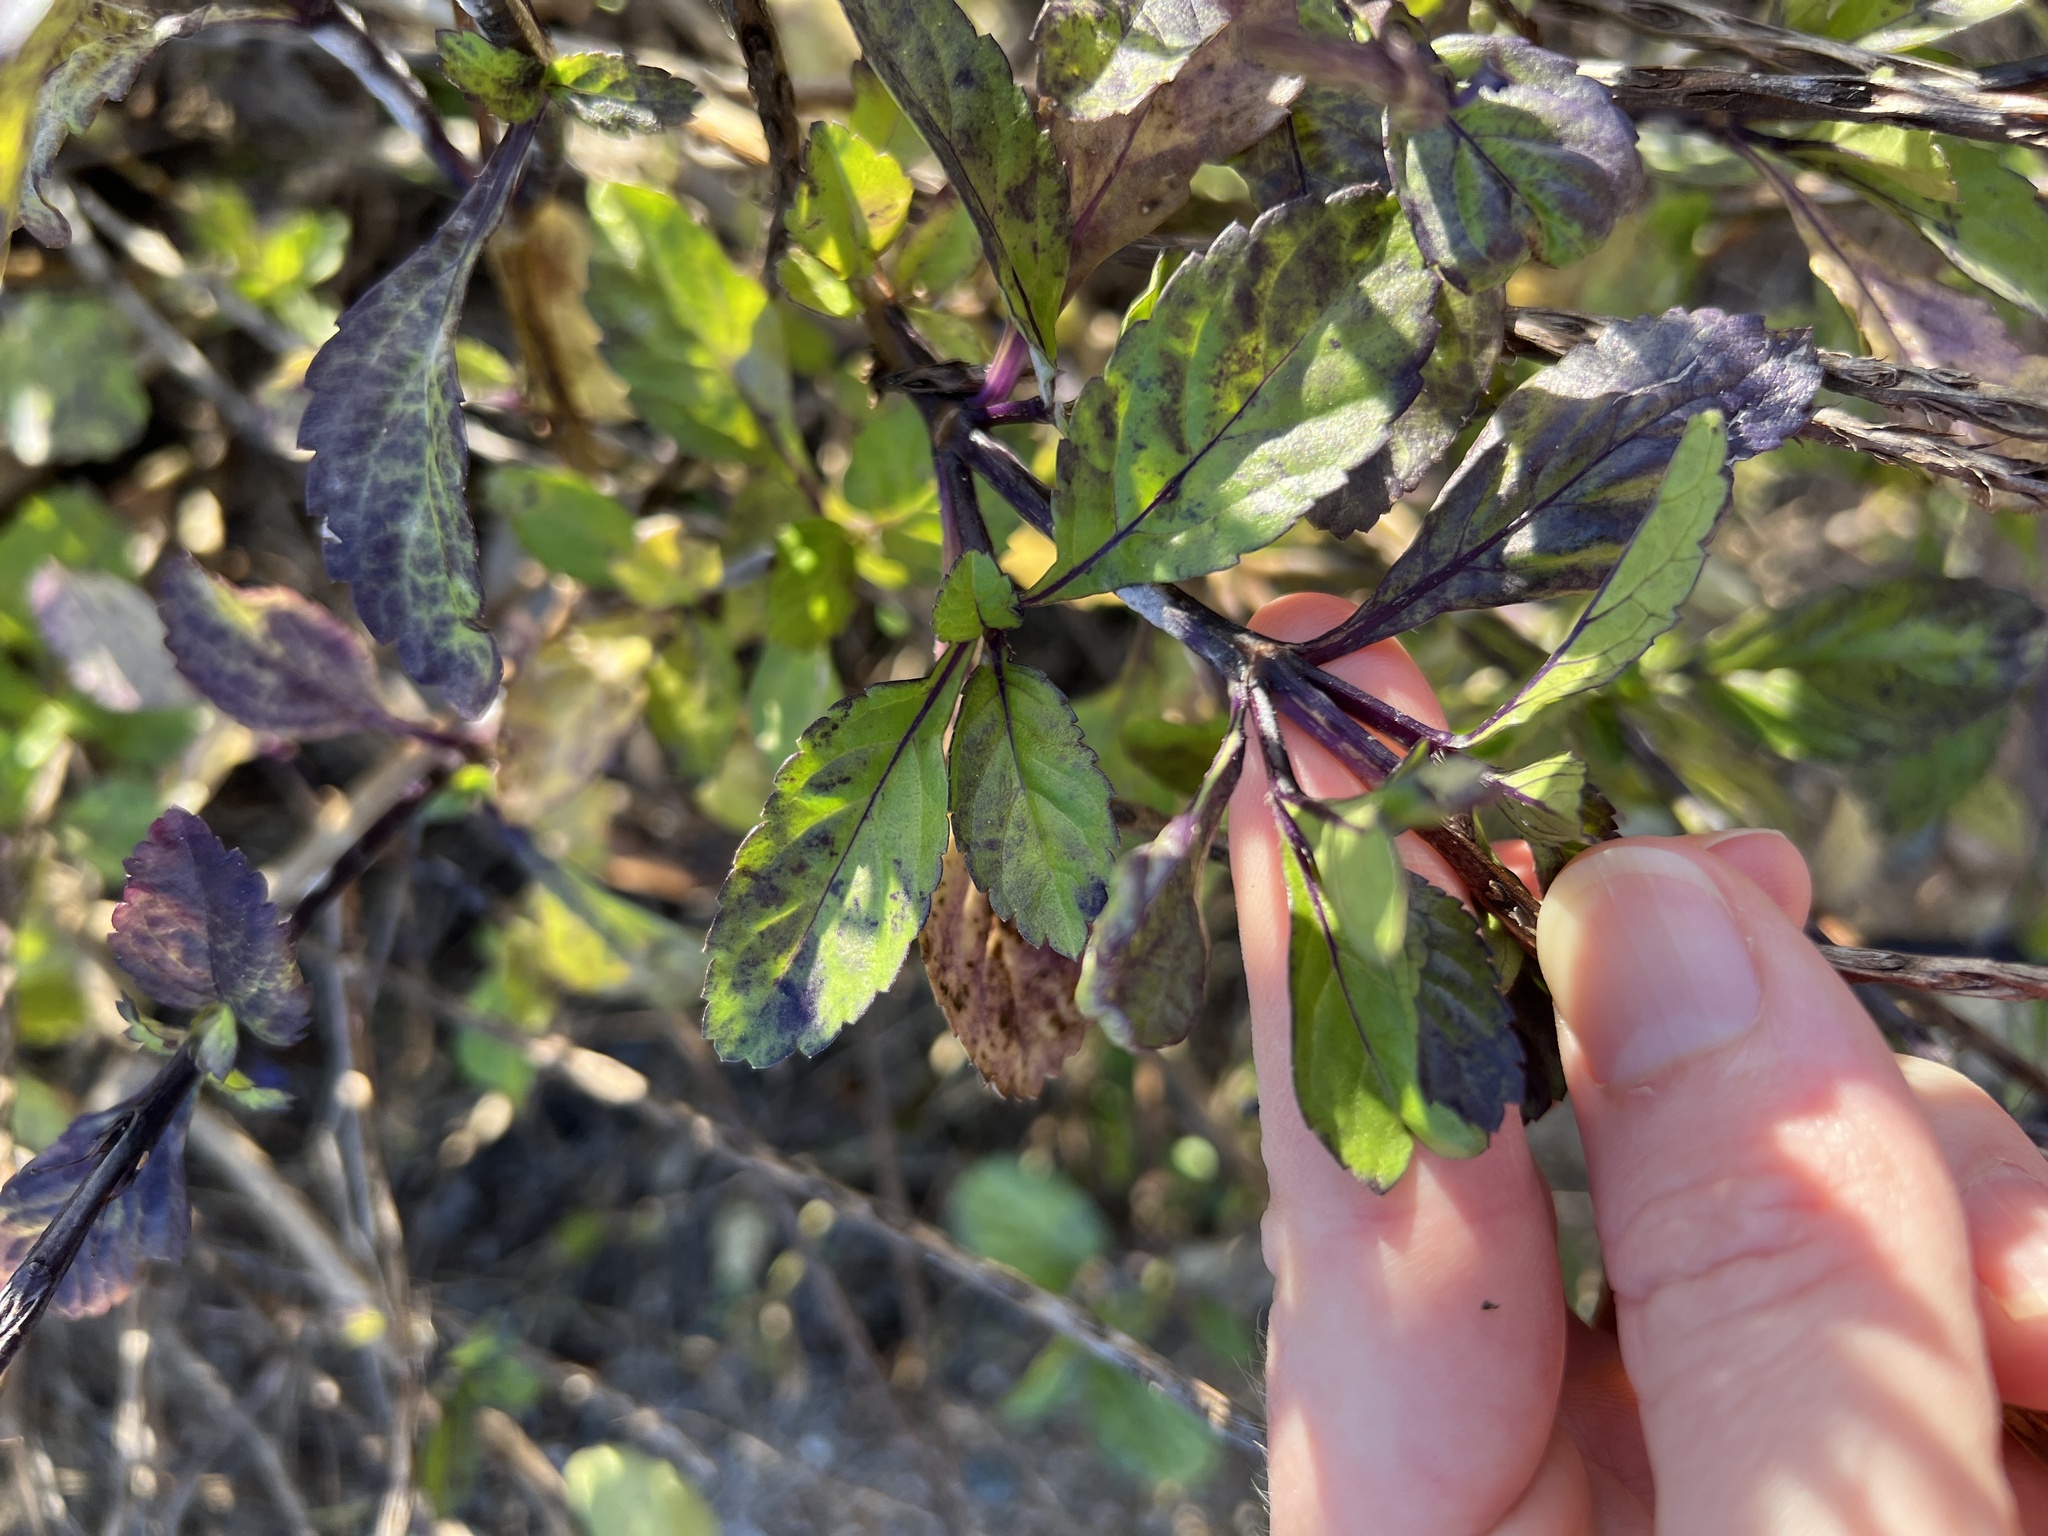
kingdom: Plantae
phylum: Tracheophyta
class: Magnoliopsida
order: Lamiales
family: Verbenaceae
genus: Stachytarpheta
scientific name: Stachytarpheta jamaicensis
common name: Light-blue snakeweed
